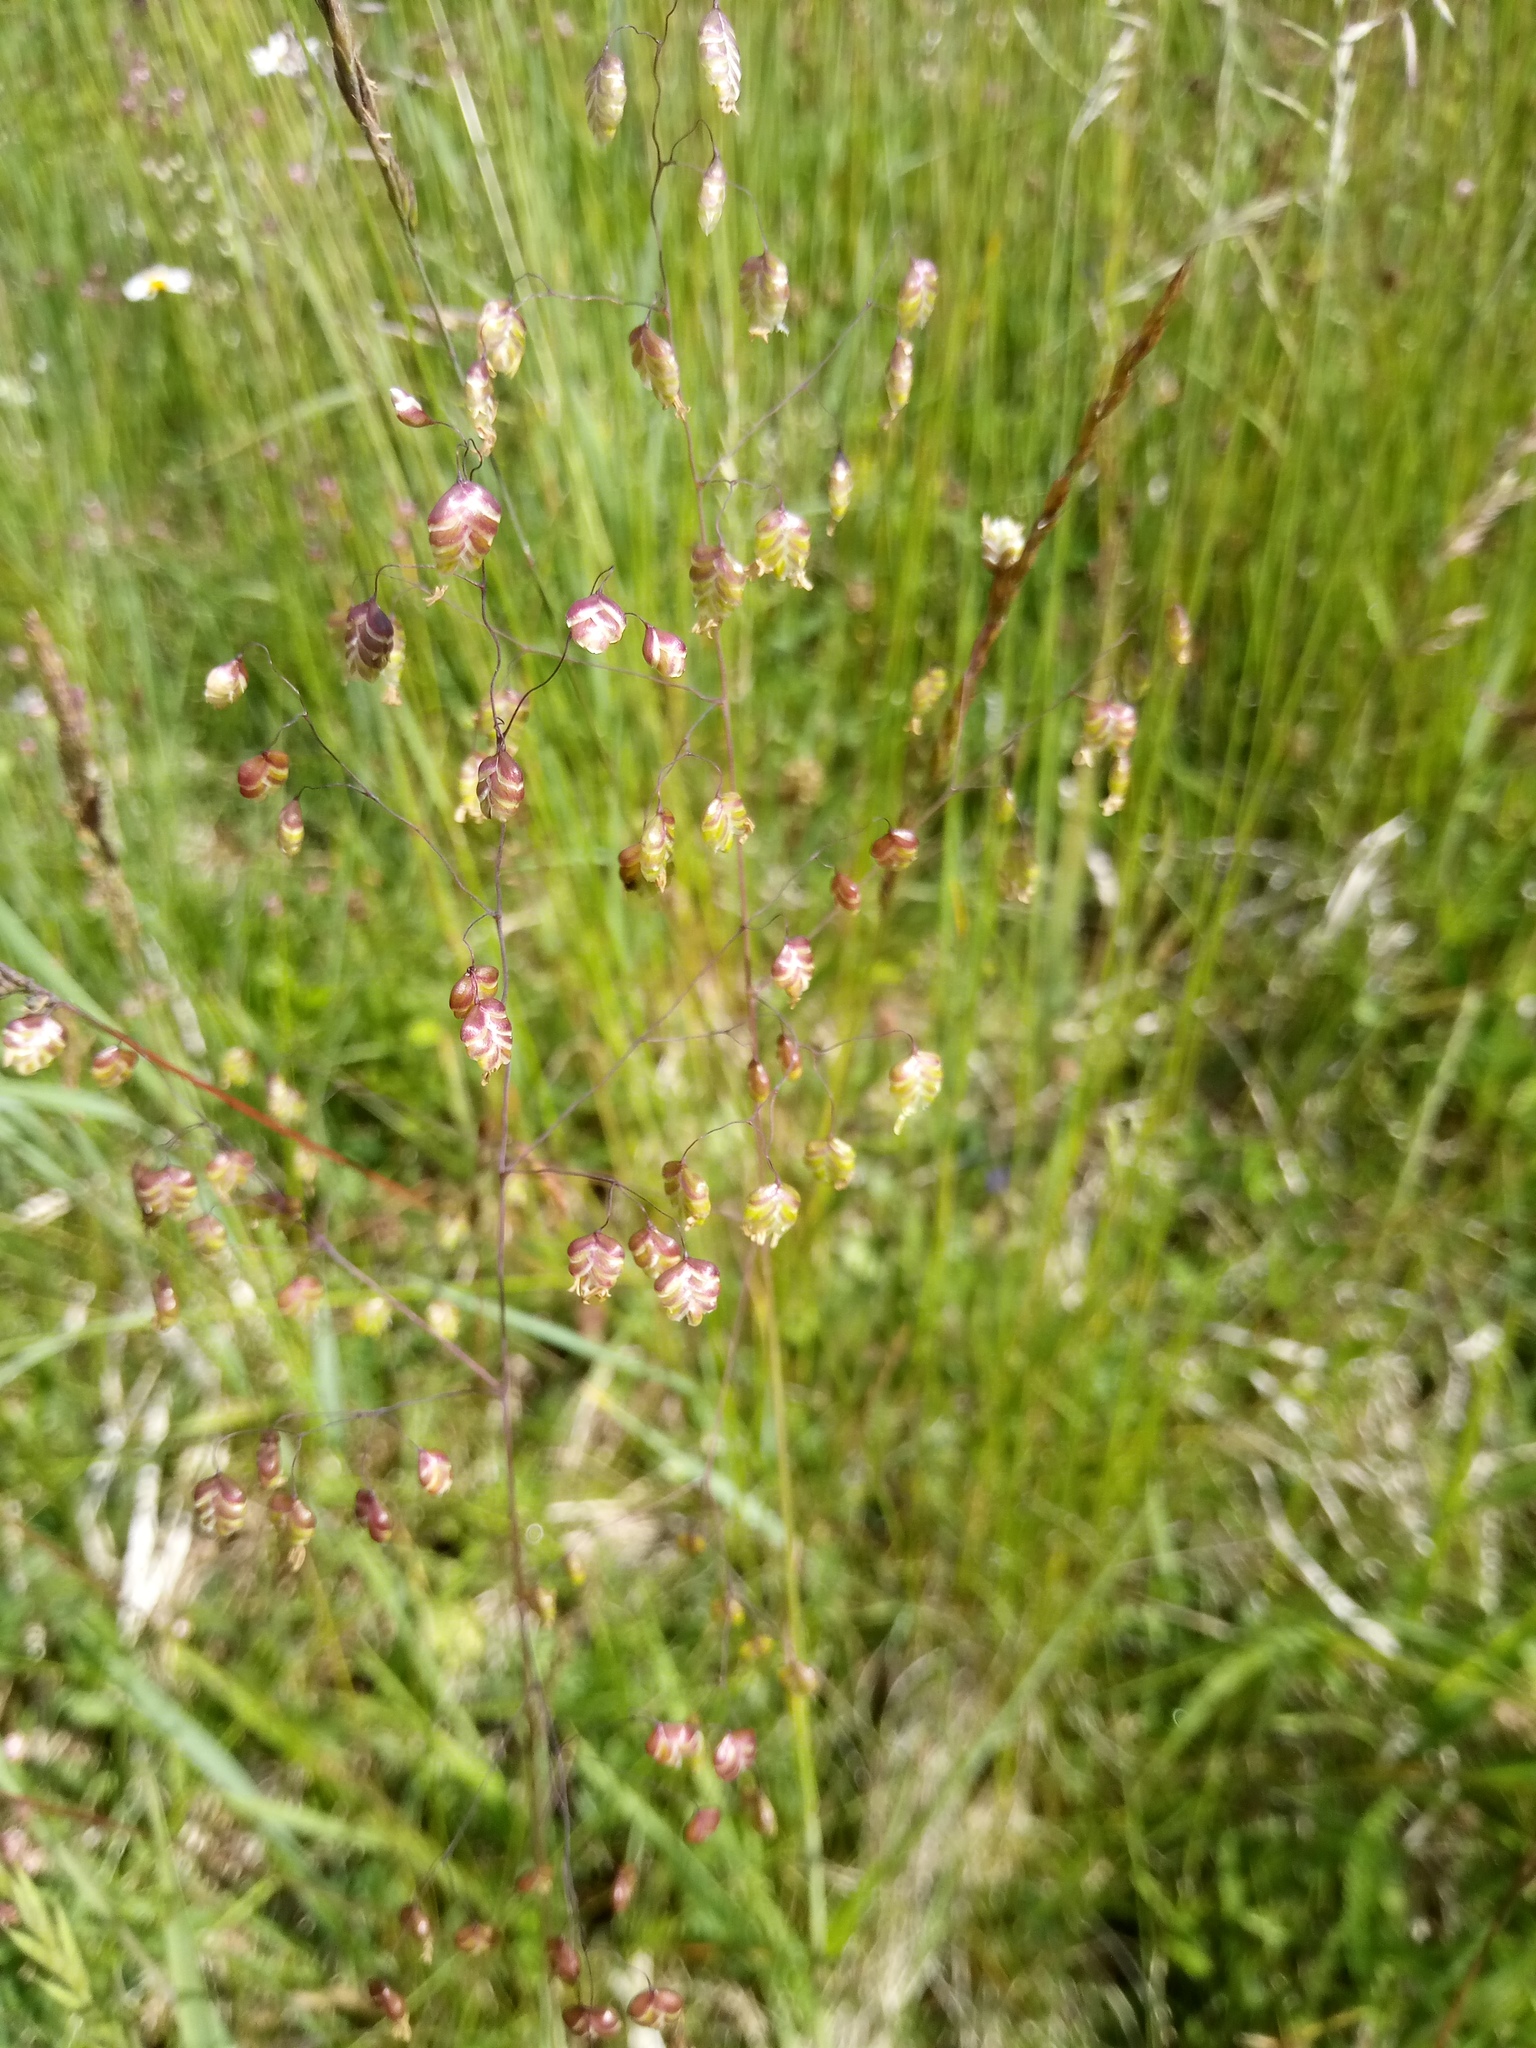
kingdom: Plantae
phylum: Tracheophyta
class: Liliopsida
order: Poales
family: Poaceae
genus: Briza
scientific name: Briza media
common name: Quaking grass
